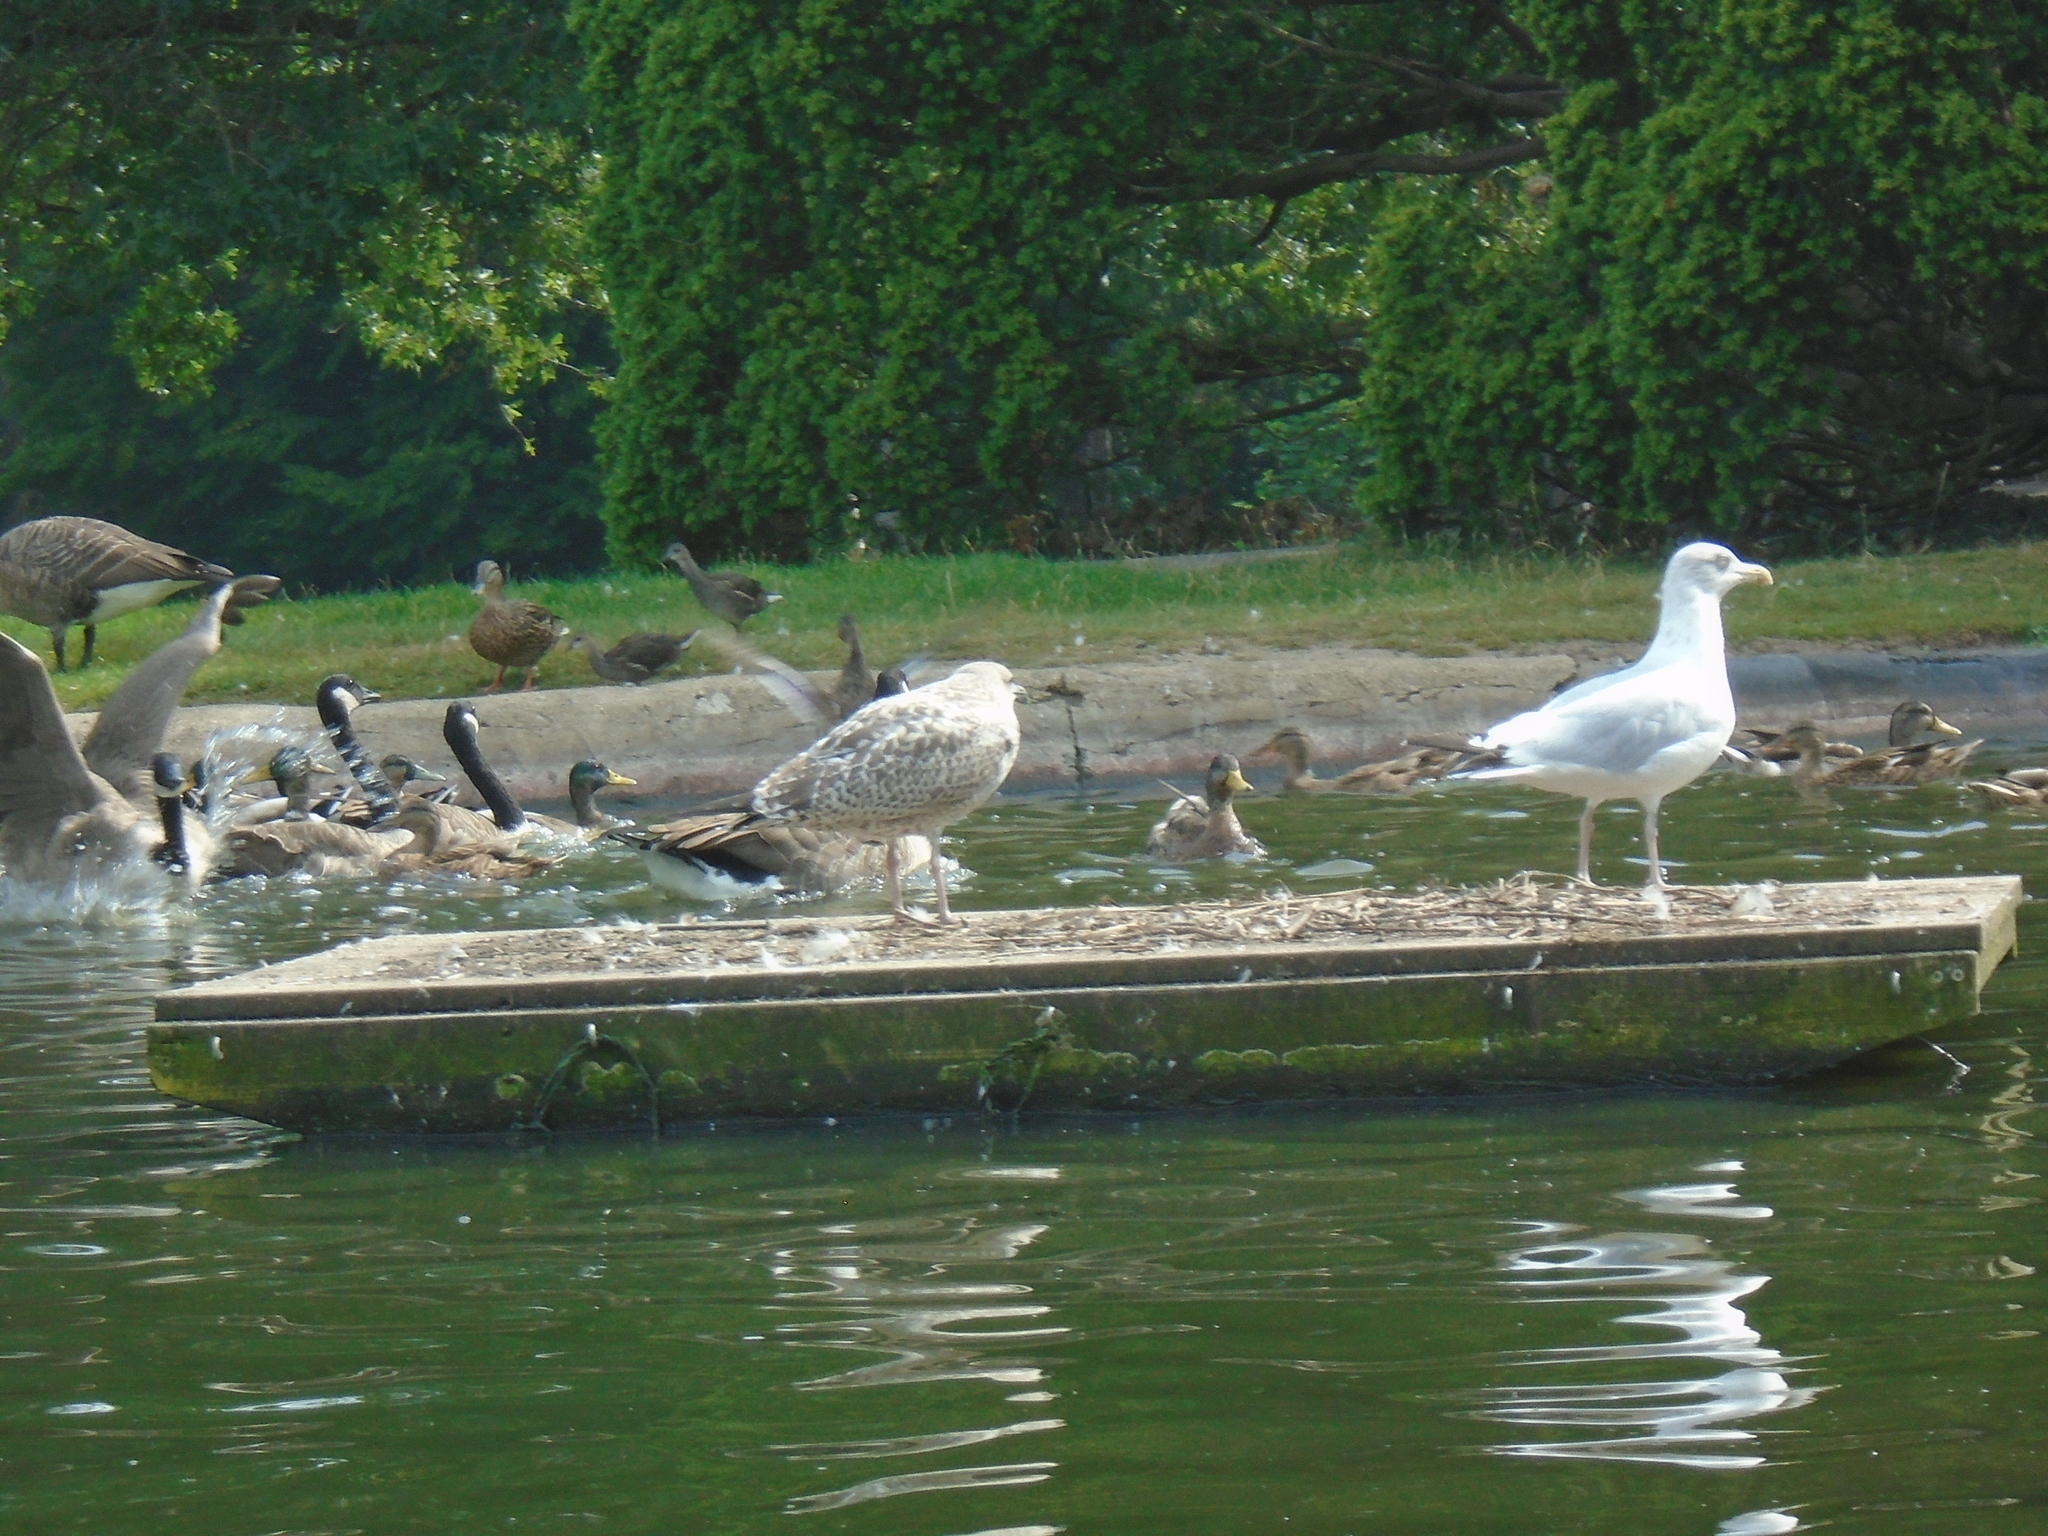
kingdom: Animalia
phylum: Chordata
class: Aves
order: Charadriiformes
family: Laridae
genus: Larus
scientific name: Larus argentatus
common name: Herring gull
